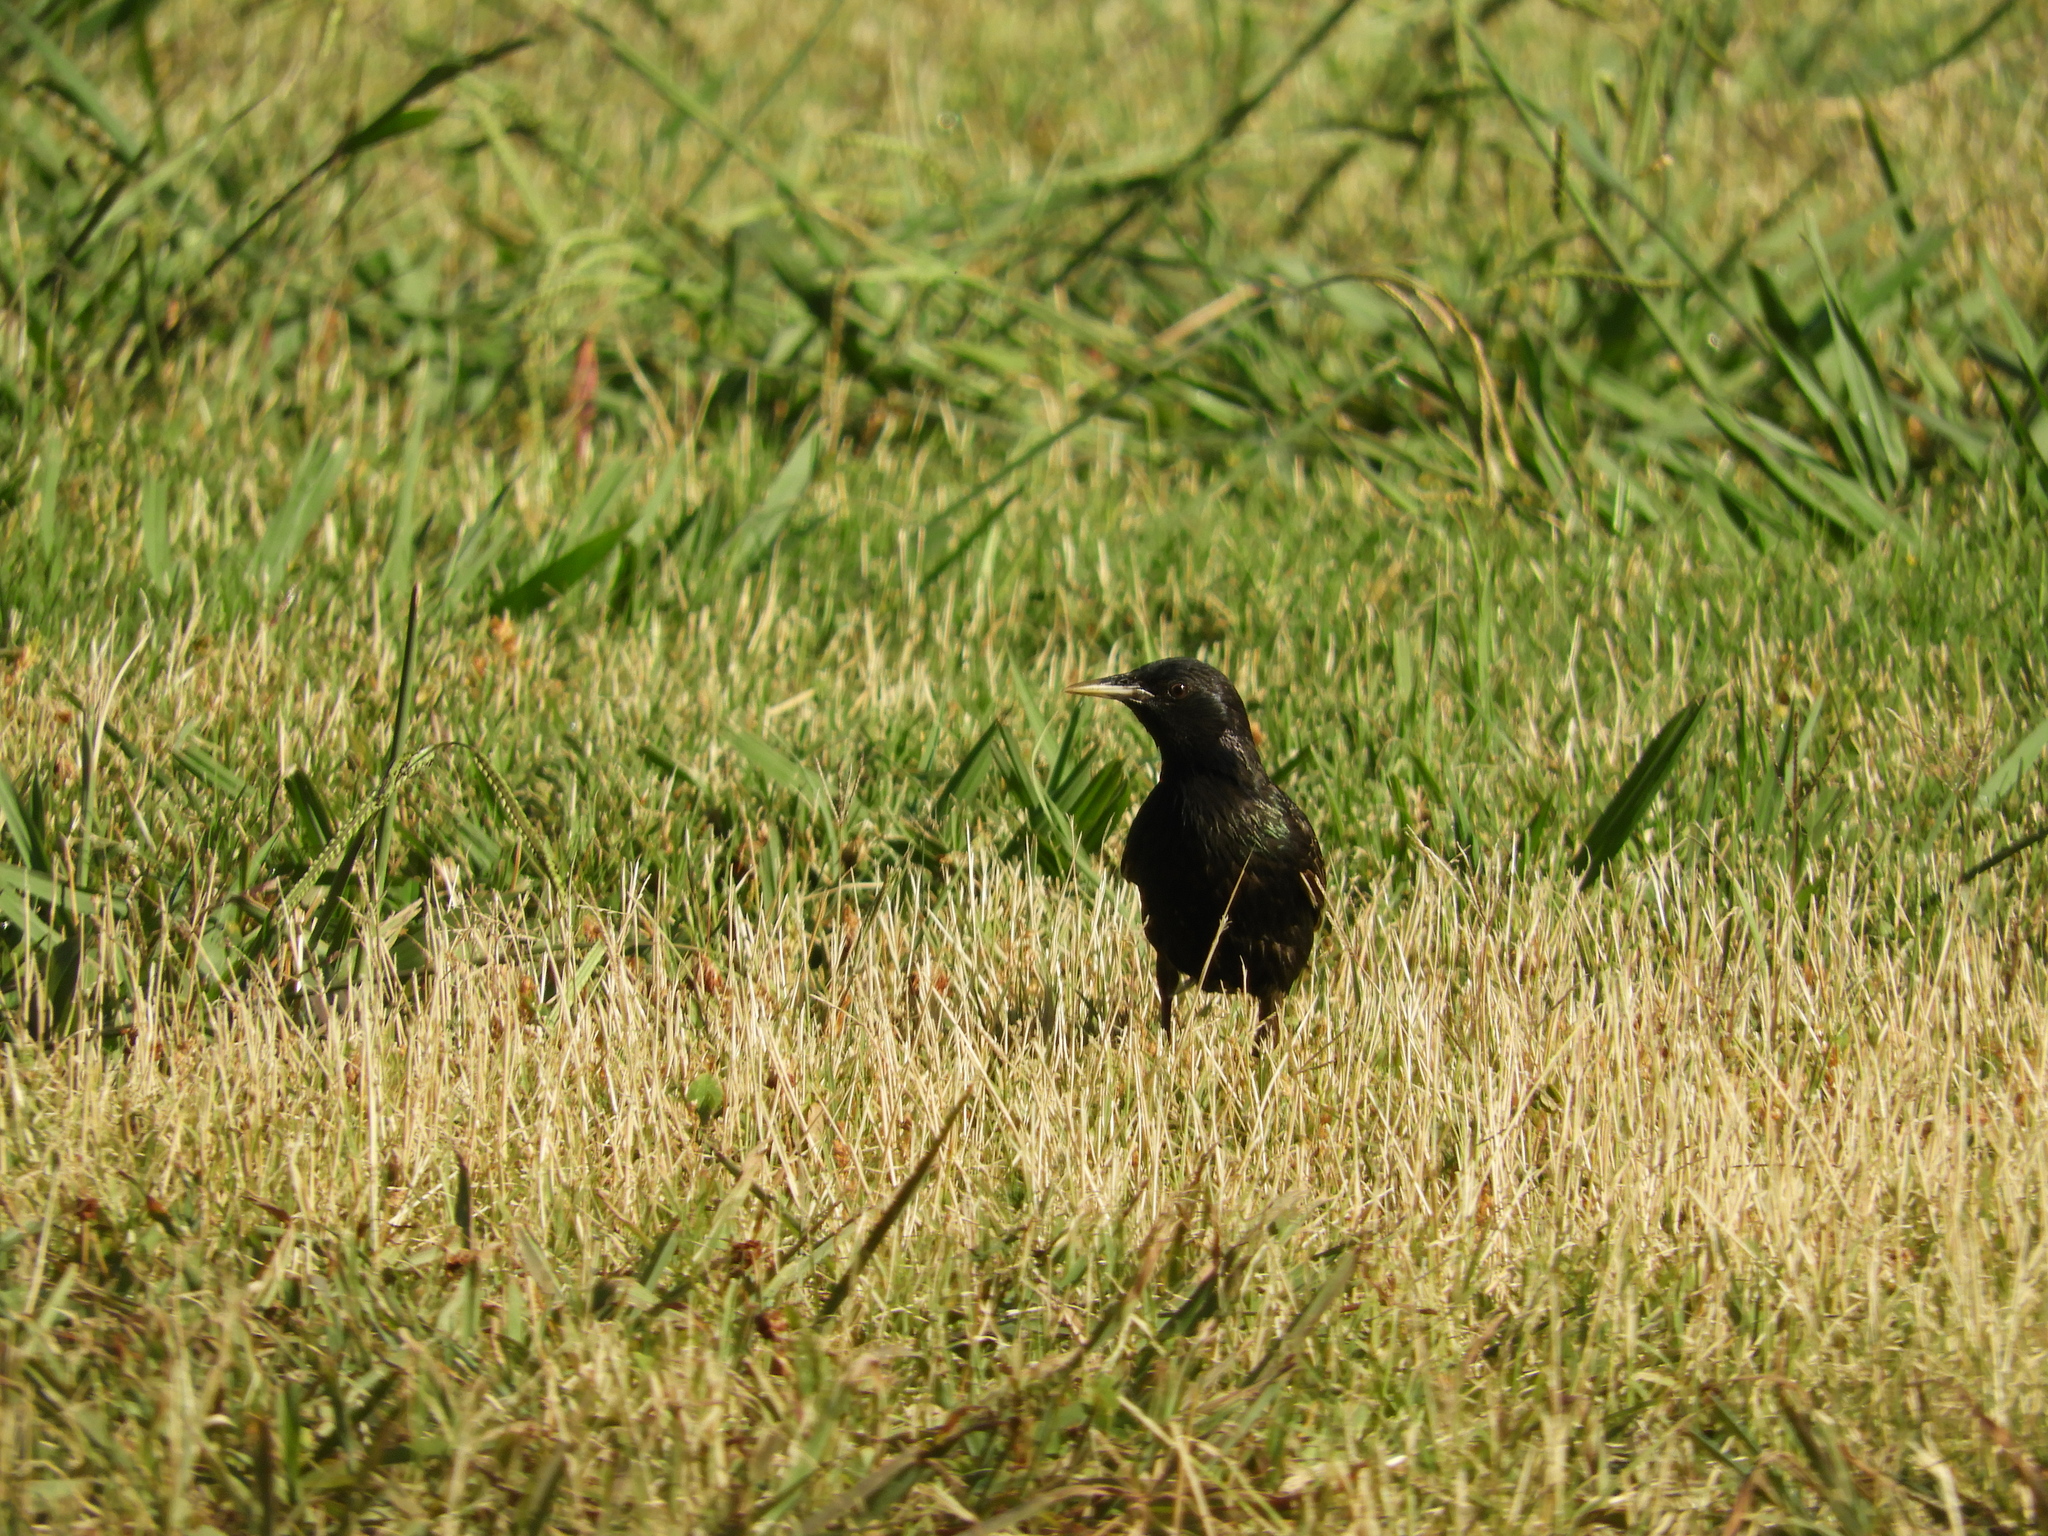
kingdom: Animalia
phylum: Chordata
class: Aves
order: Passeriformes
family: Sturnidae
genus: Sturnus
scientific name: Sturnus vulgaris
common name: Common starling
